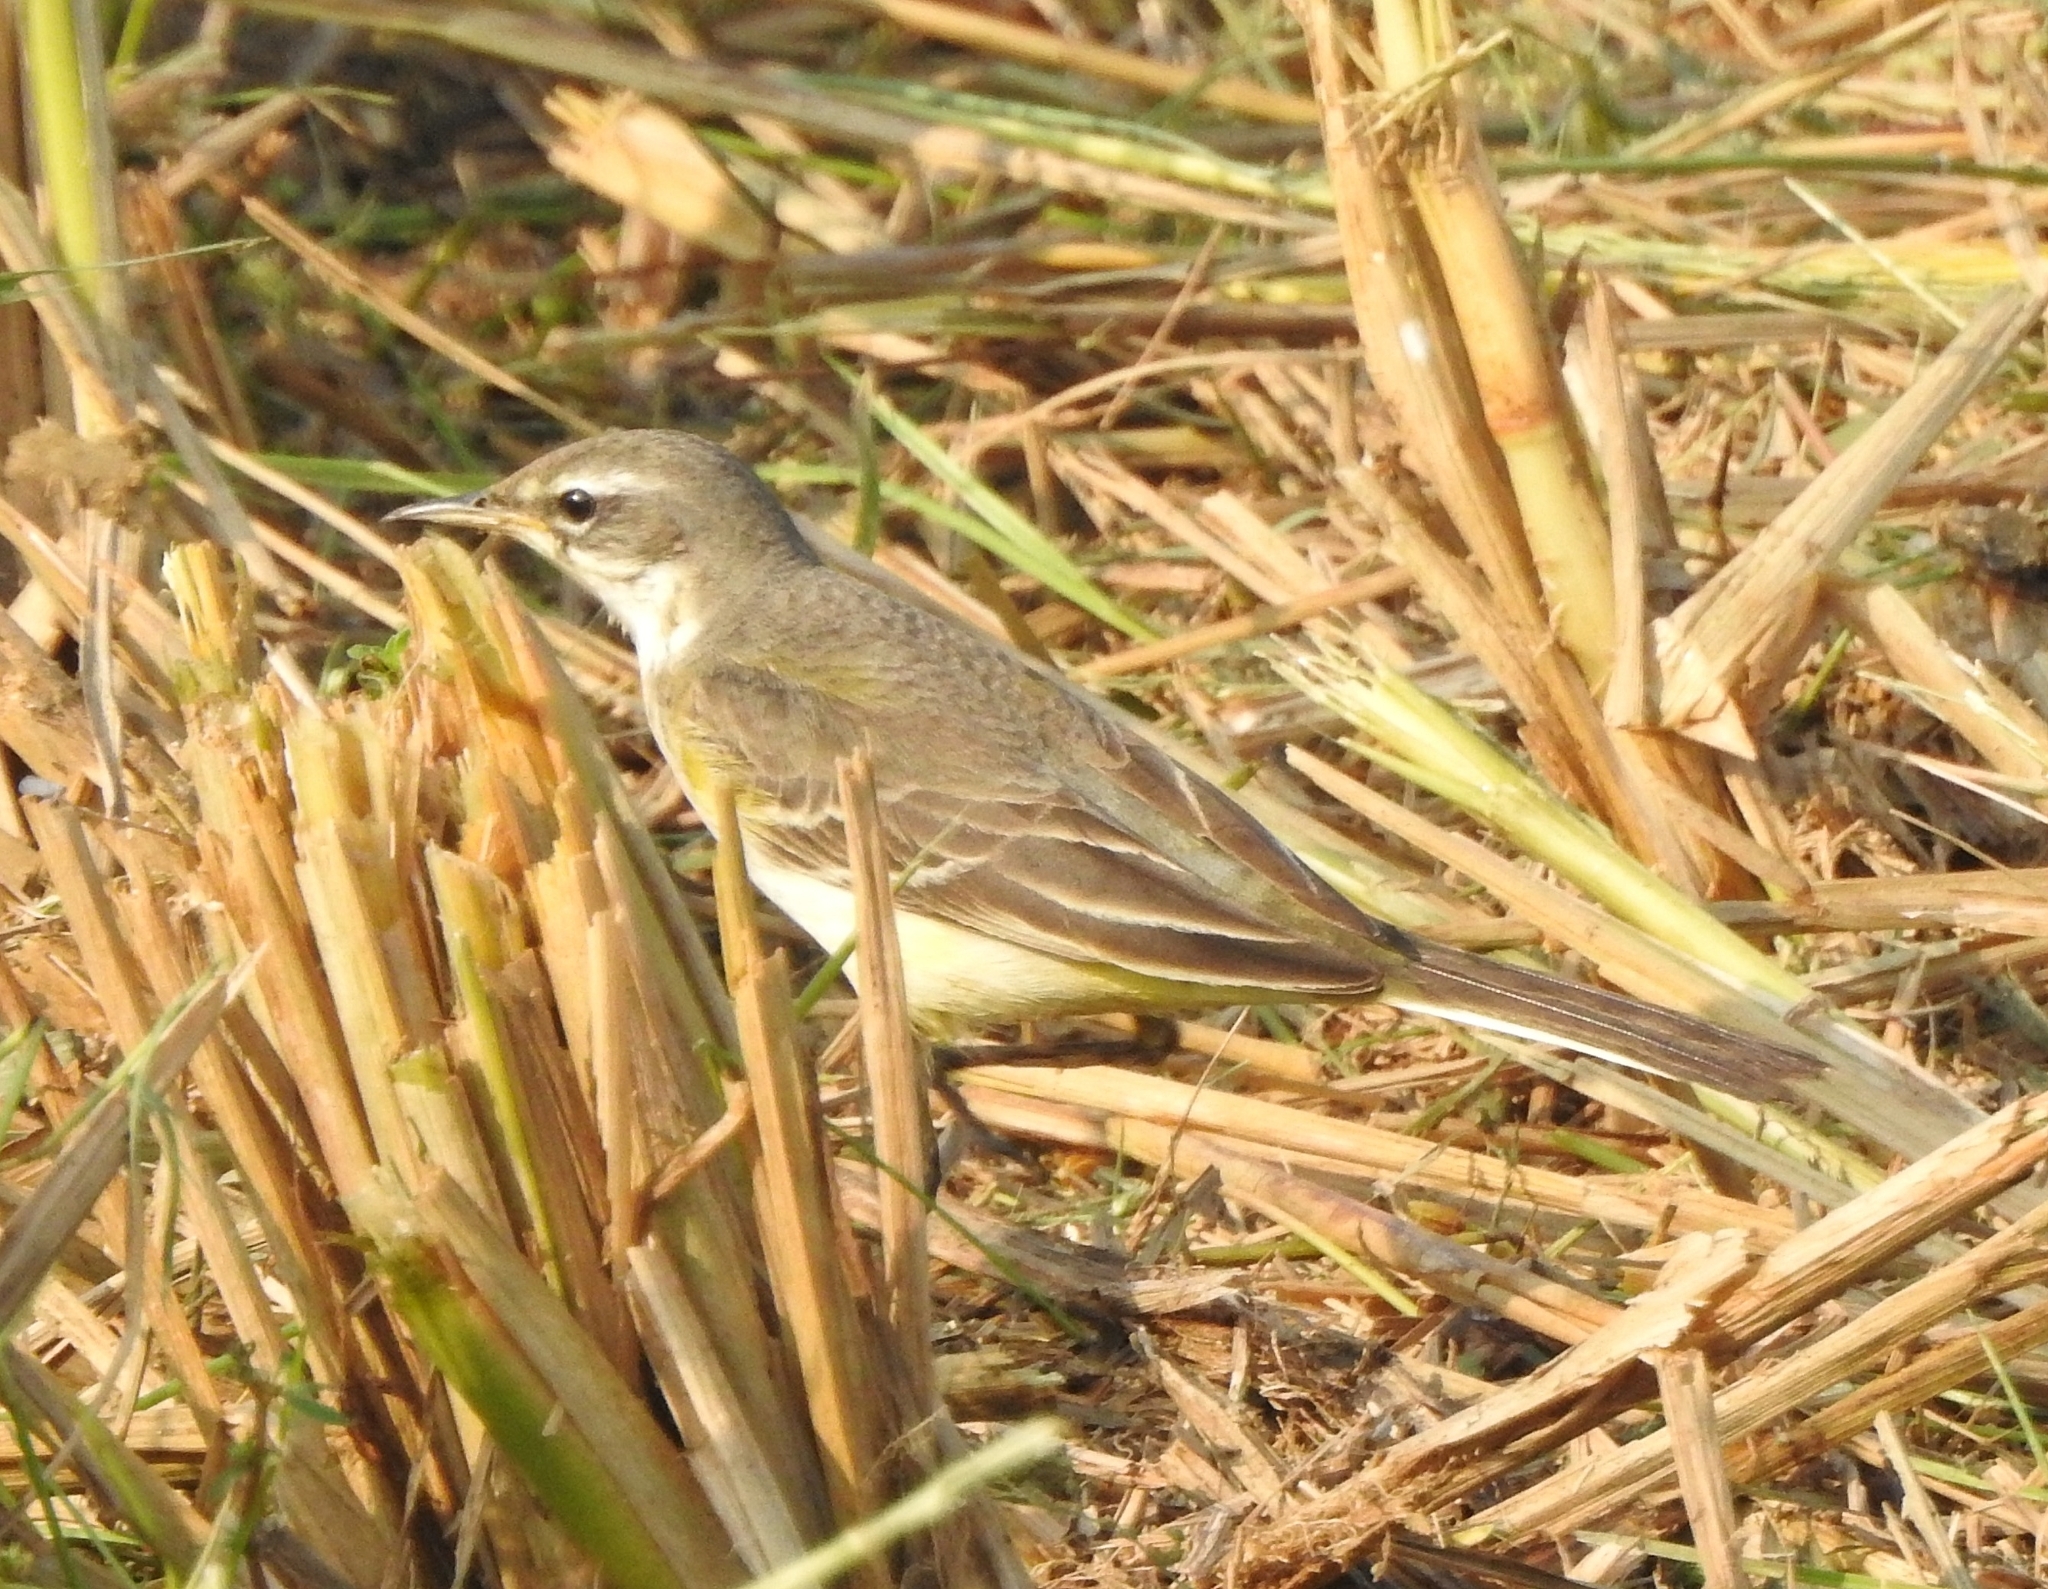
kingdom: Animalia
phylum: Chordata
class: Aves
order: Passeriformes
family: Motacillidae
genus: Motacilla
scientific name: Motacilla flava
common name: Western yellow wagtail
